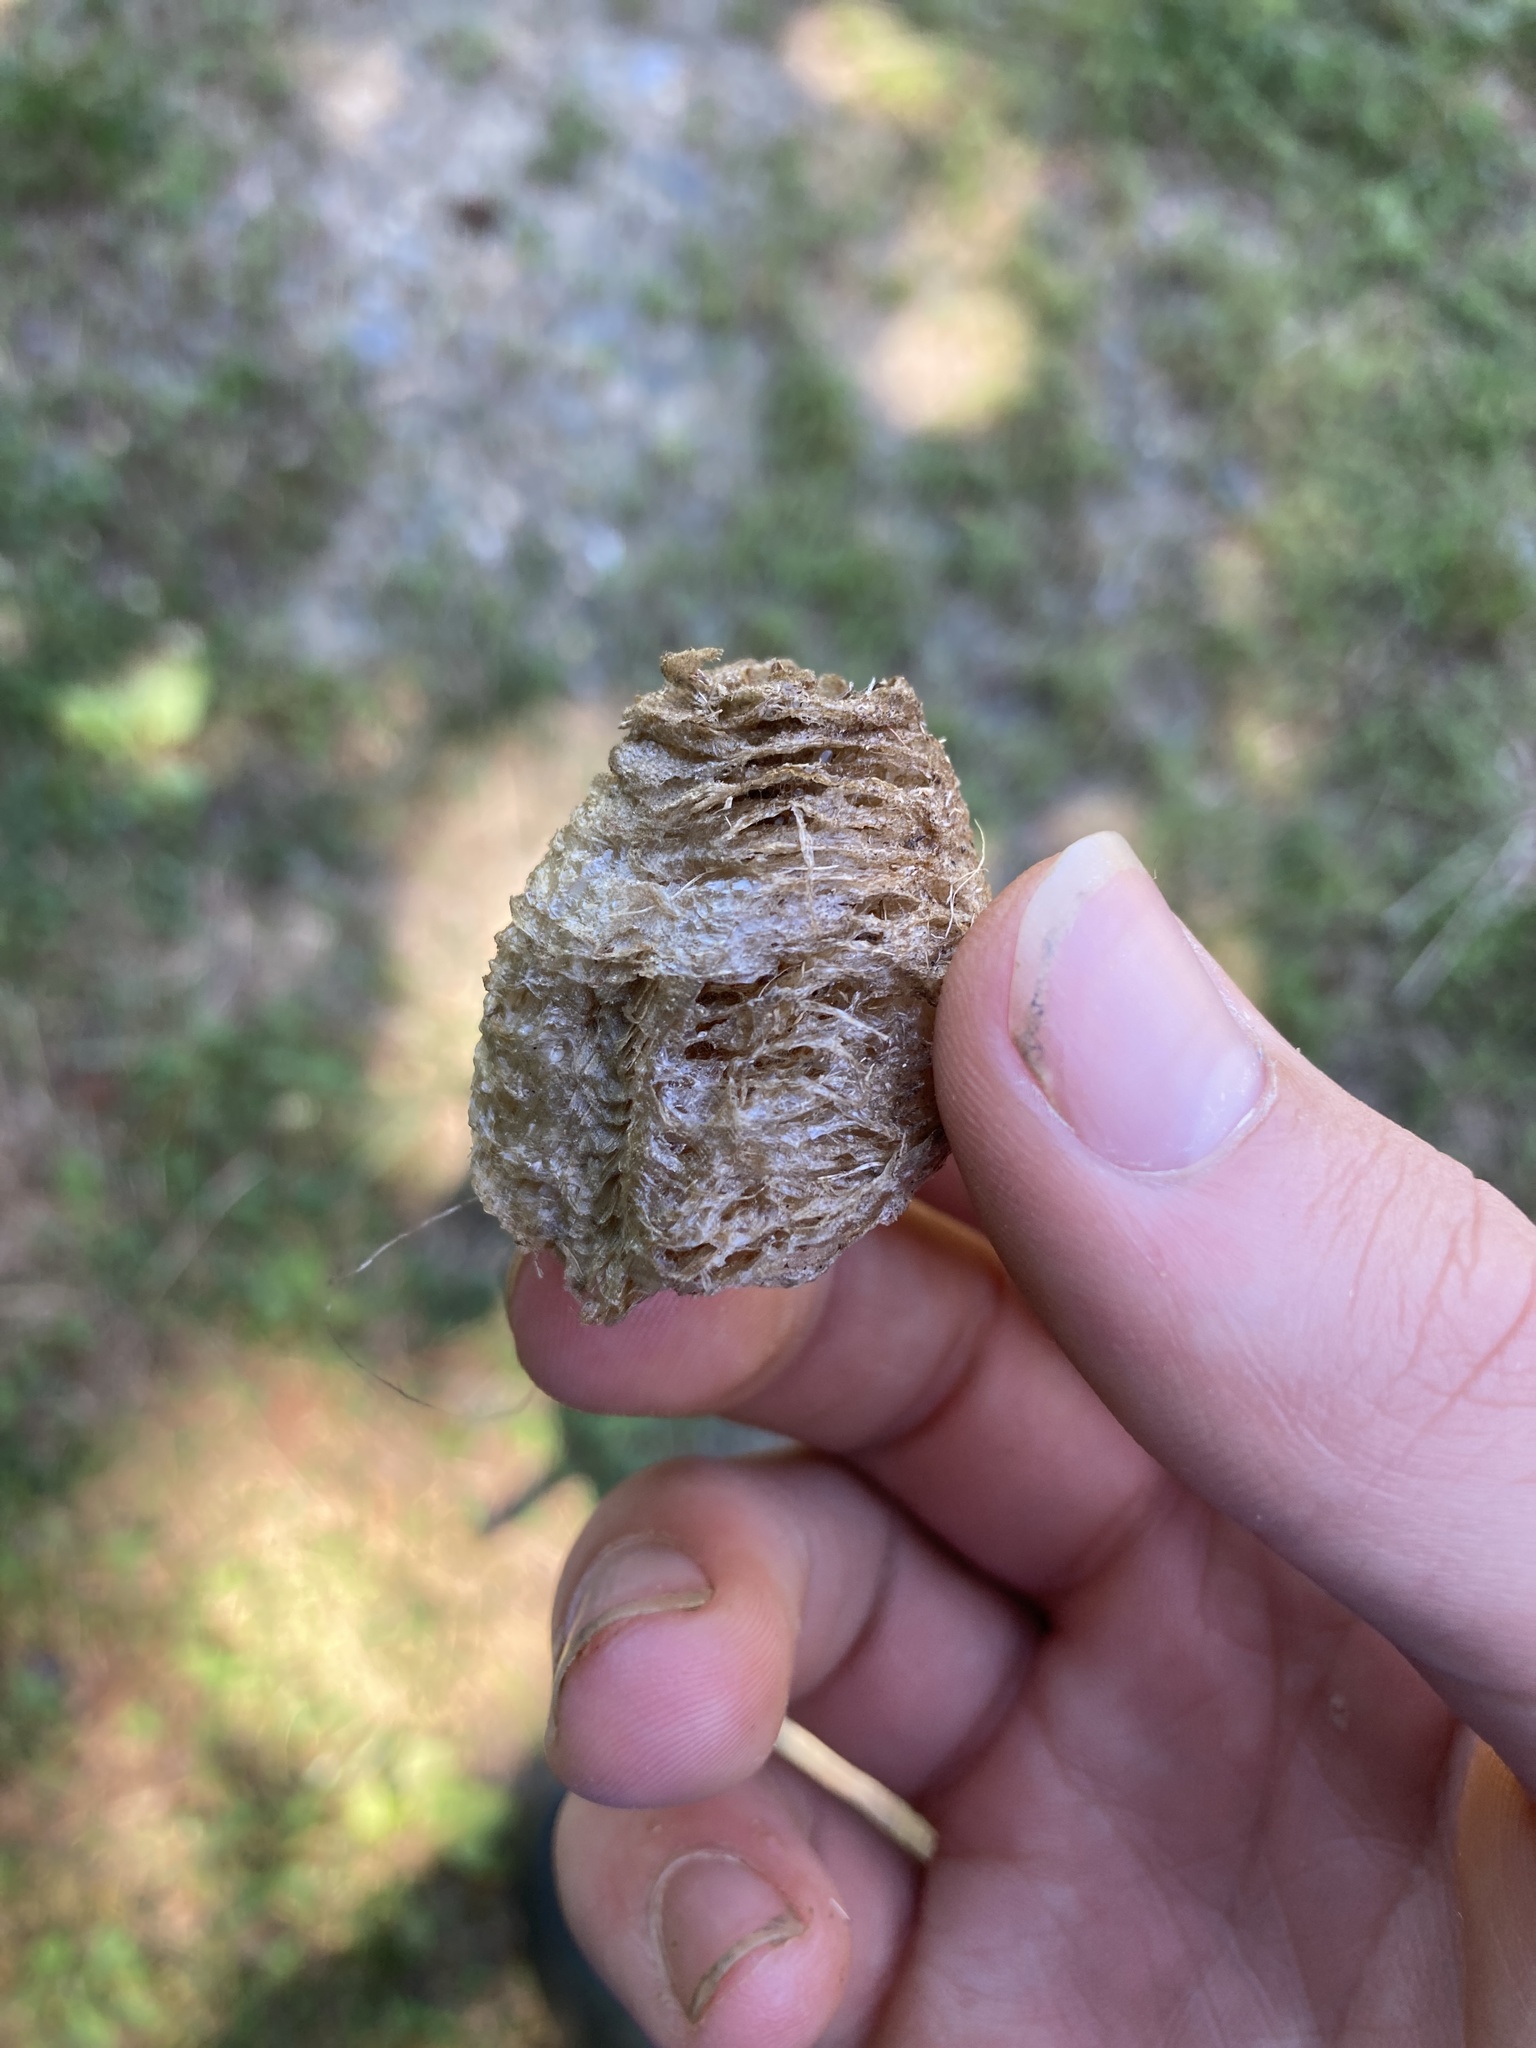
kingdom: Animalia
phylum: Arthropoda
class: Insecta
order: Mantodea
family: Mantidae
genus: Tenodera
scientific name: Tenodera sinensis
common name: Chinese mantis
